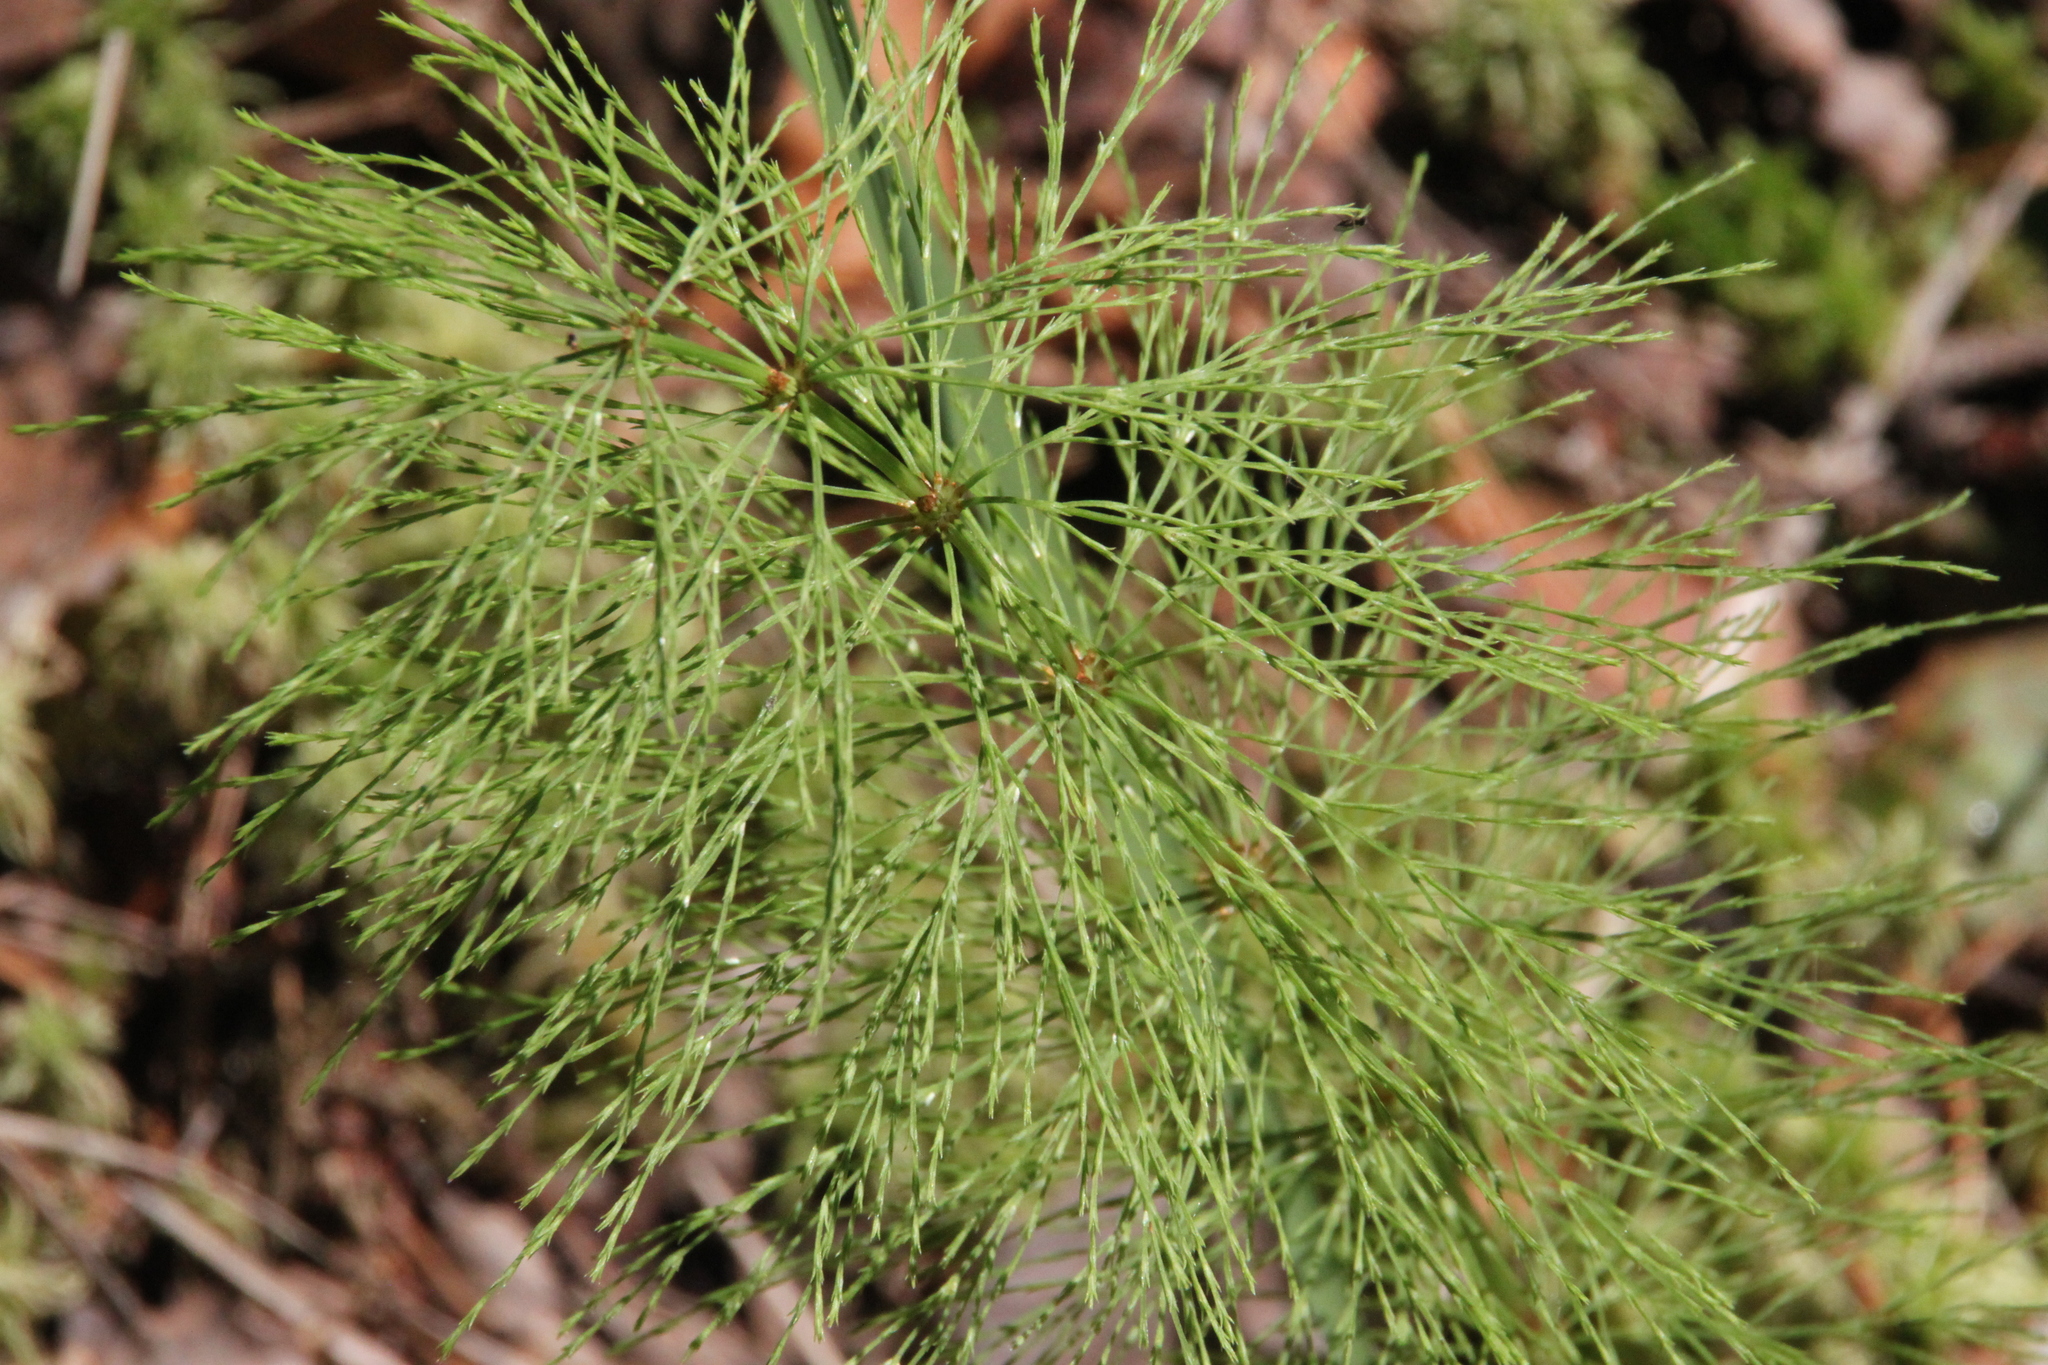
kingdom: Plantae
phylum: Tracheophyta
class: Polypodiopsida
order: Equisetales
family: Equisetaceae
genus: Equisetum
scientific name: Equisetum sylvaticum
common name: Wood horsetail
